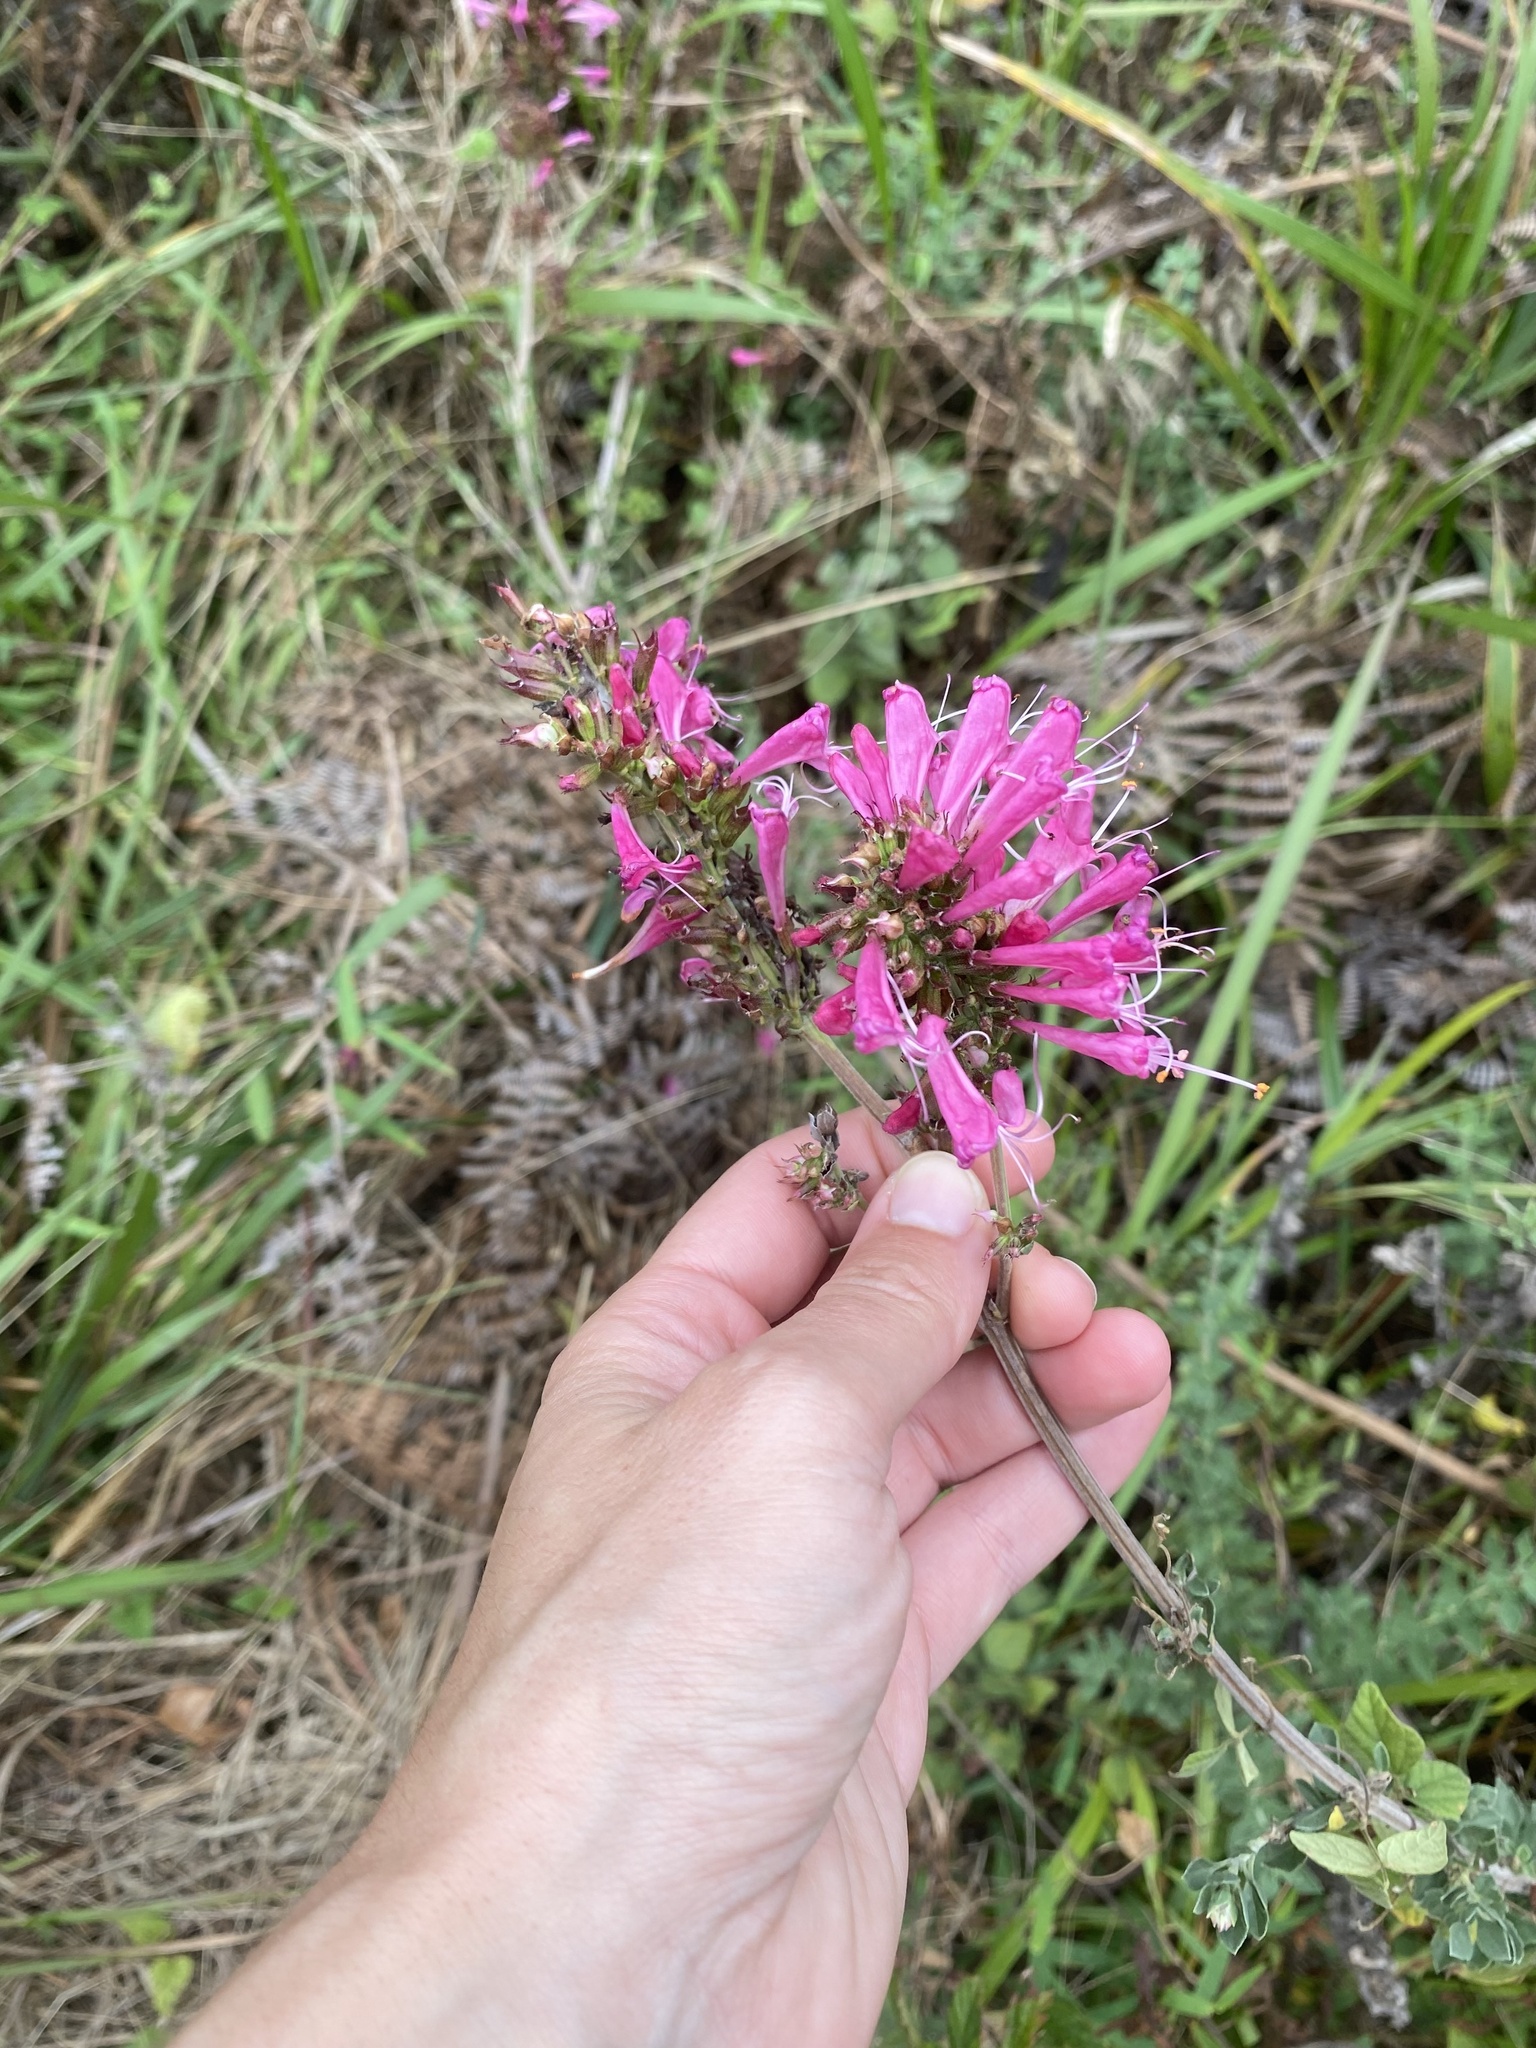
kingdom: Plantae
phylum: Tracheophyta
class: Magnoliopsida
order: Lamiales
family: Lamiaceae
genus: Syncolostemon
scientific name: Syncolostemon densiflorus
